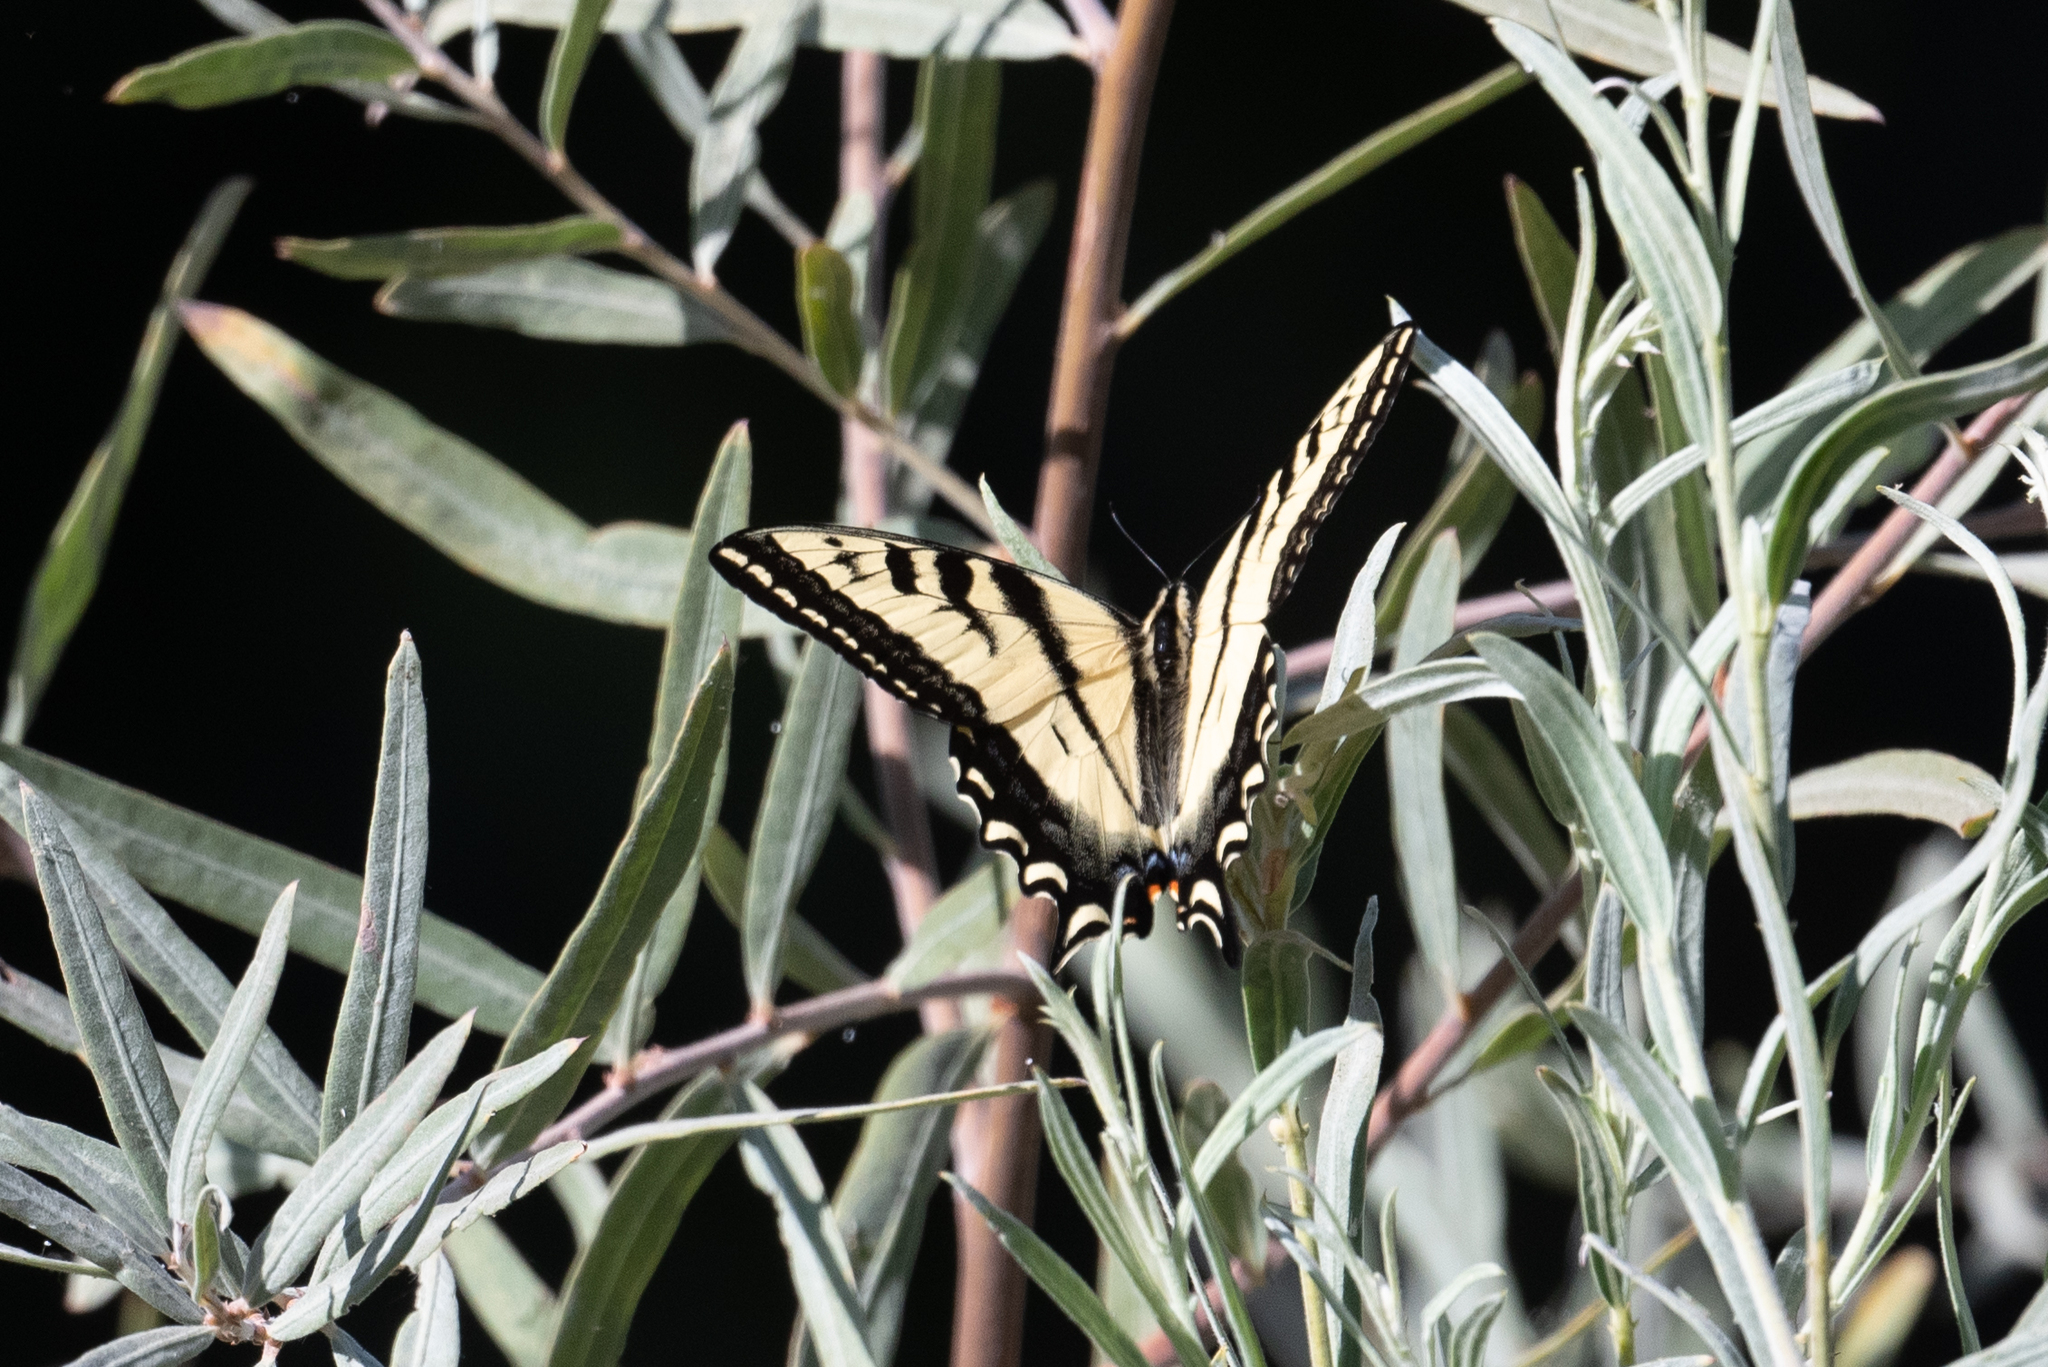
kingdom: Animalia
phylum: Arthropoda
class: Insecta
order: Lepidoptera
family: Papilionidae
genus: Papilio
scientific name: Papilio rutulus
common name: Western tiger swallowtail
